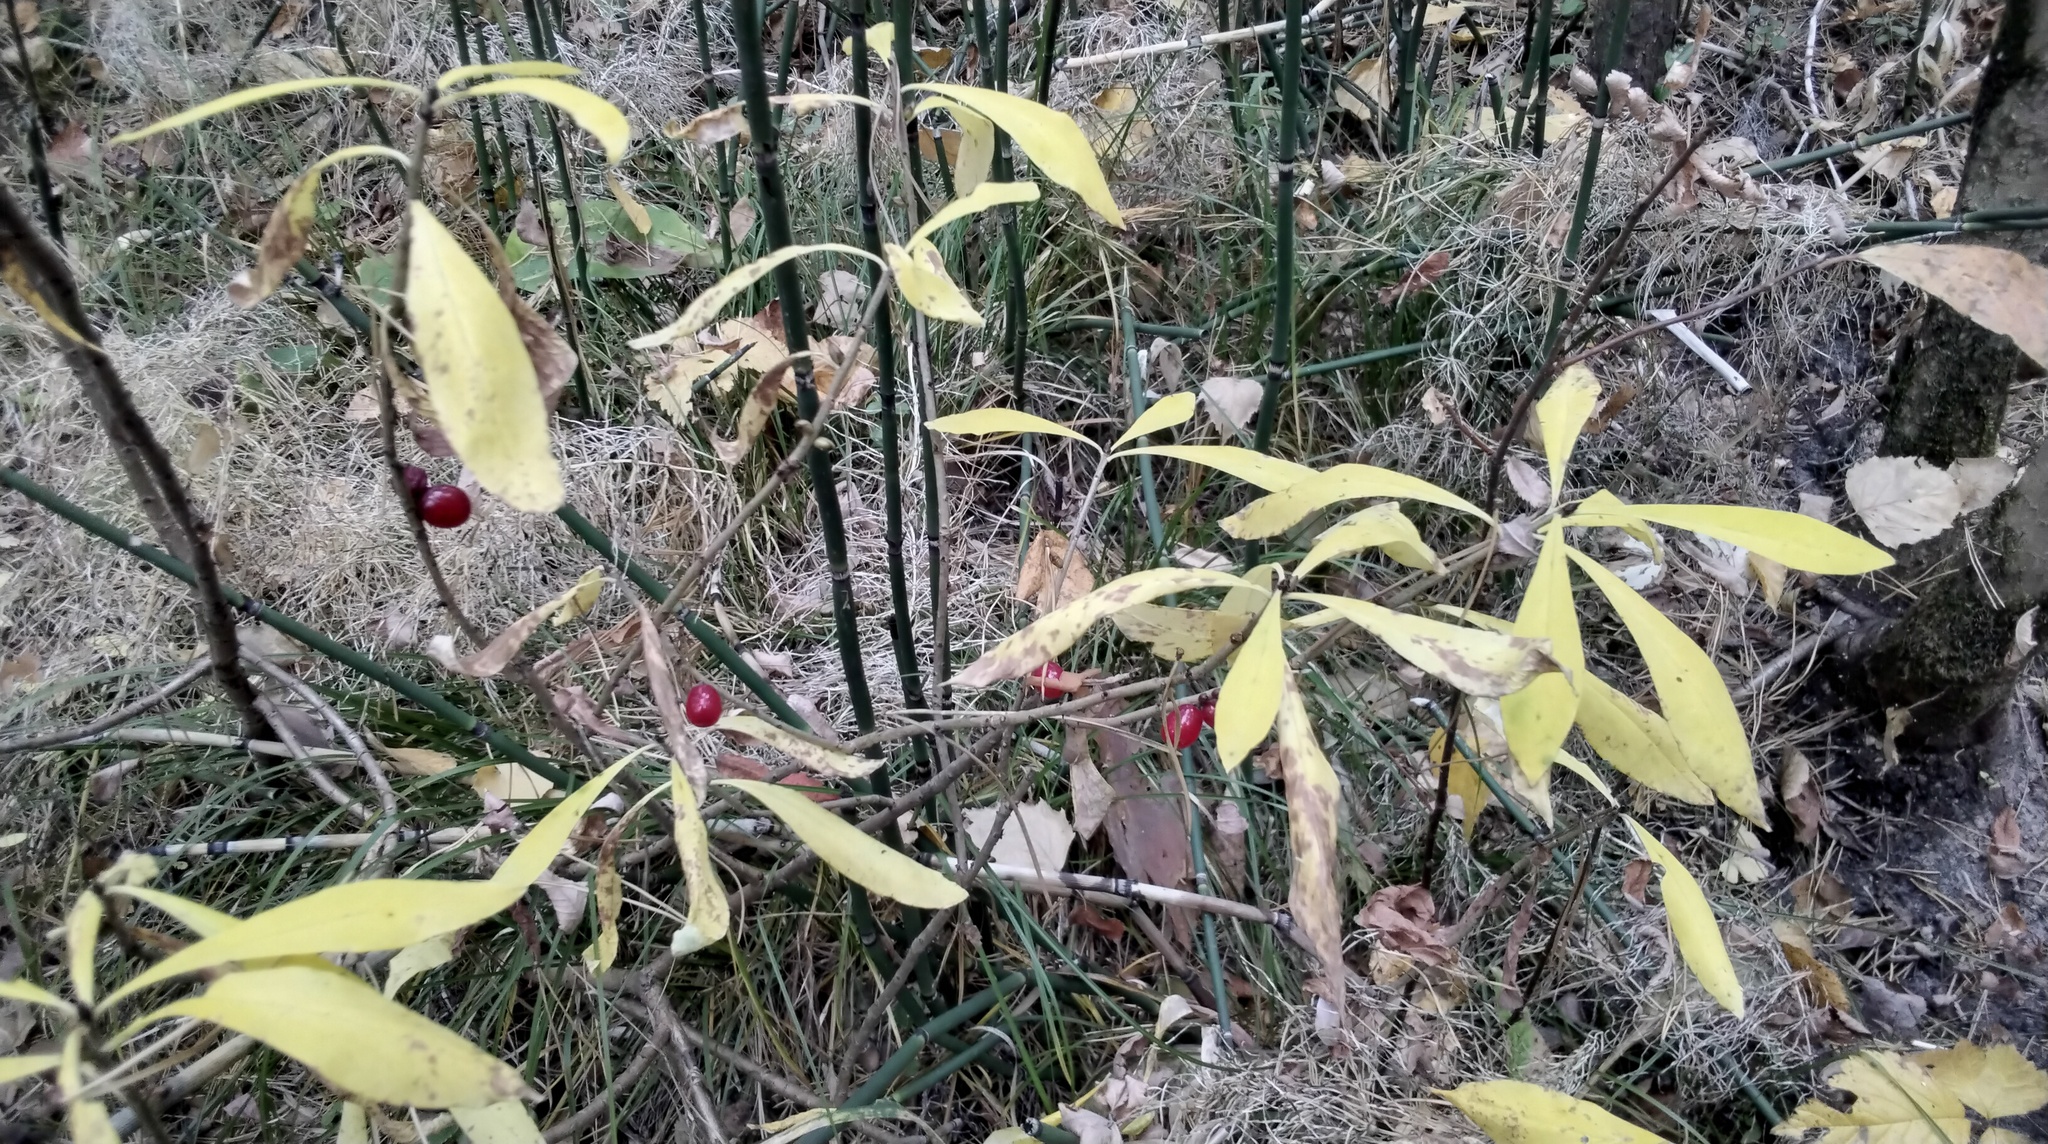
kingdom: Plantae
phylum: Tracheophyta
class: Magnoliopsida
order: Malvales
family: Thymelaeaceae
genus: Daphne
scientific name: Daphne mezereum
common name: Mezereon
